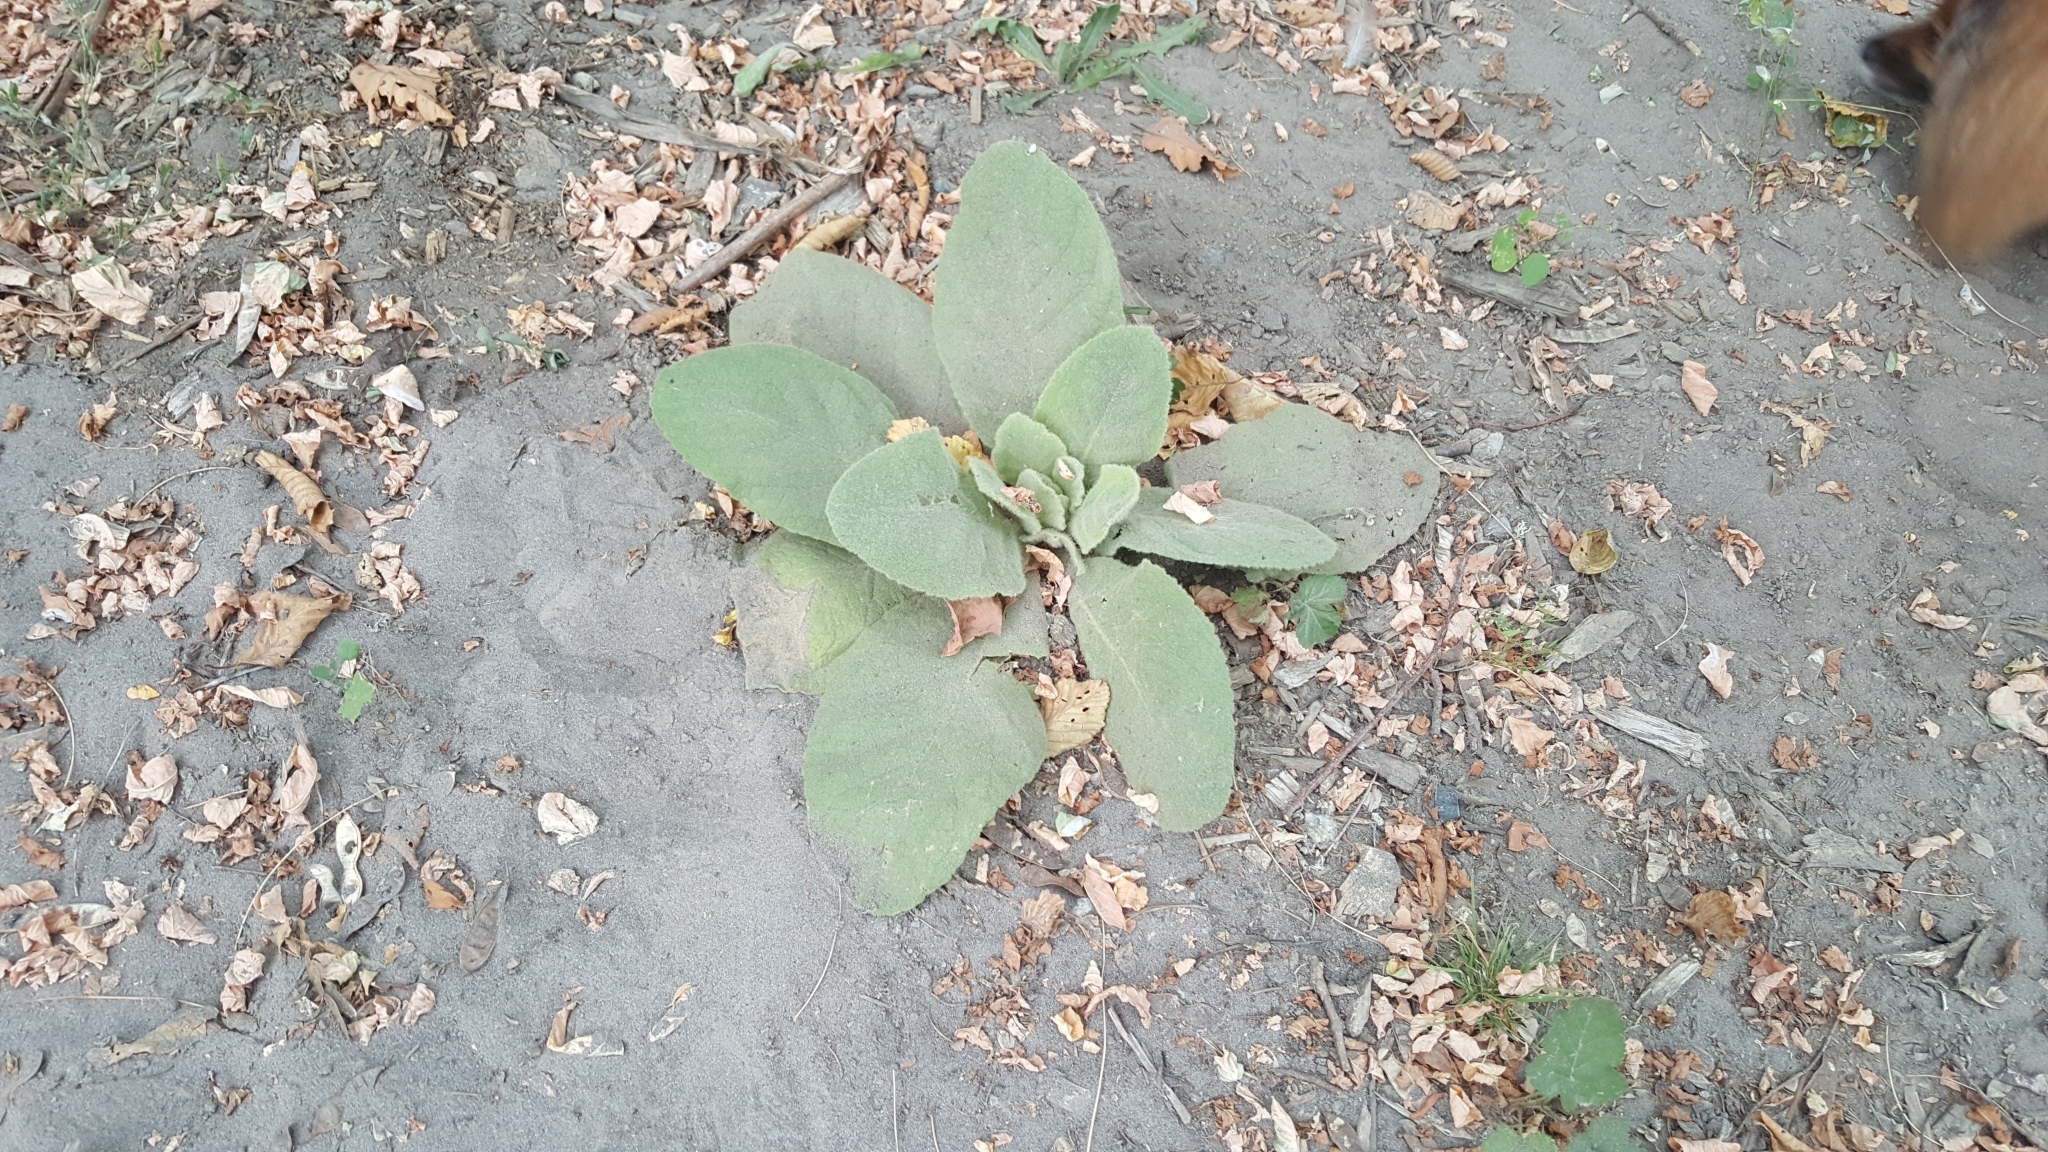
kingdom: Plantae
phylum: Tracheophyta
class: Magnoliopsida
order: Lamiales
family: Scrophulariaceae
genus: Verbascum
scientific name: Verbascum thapsus
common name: Common mullein
